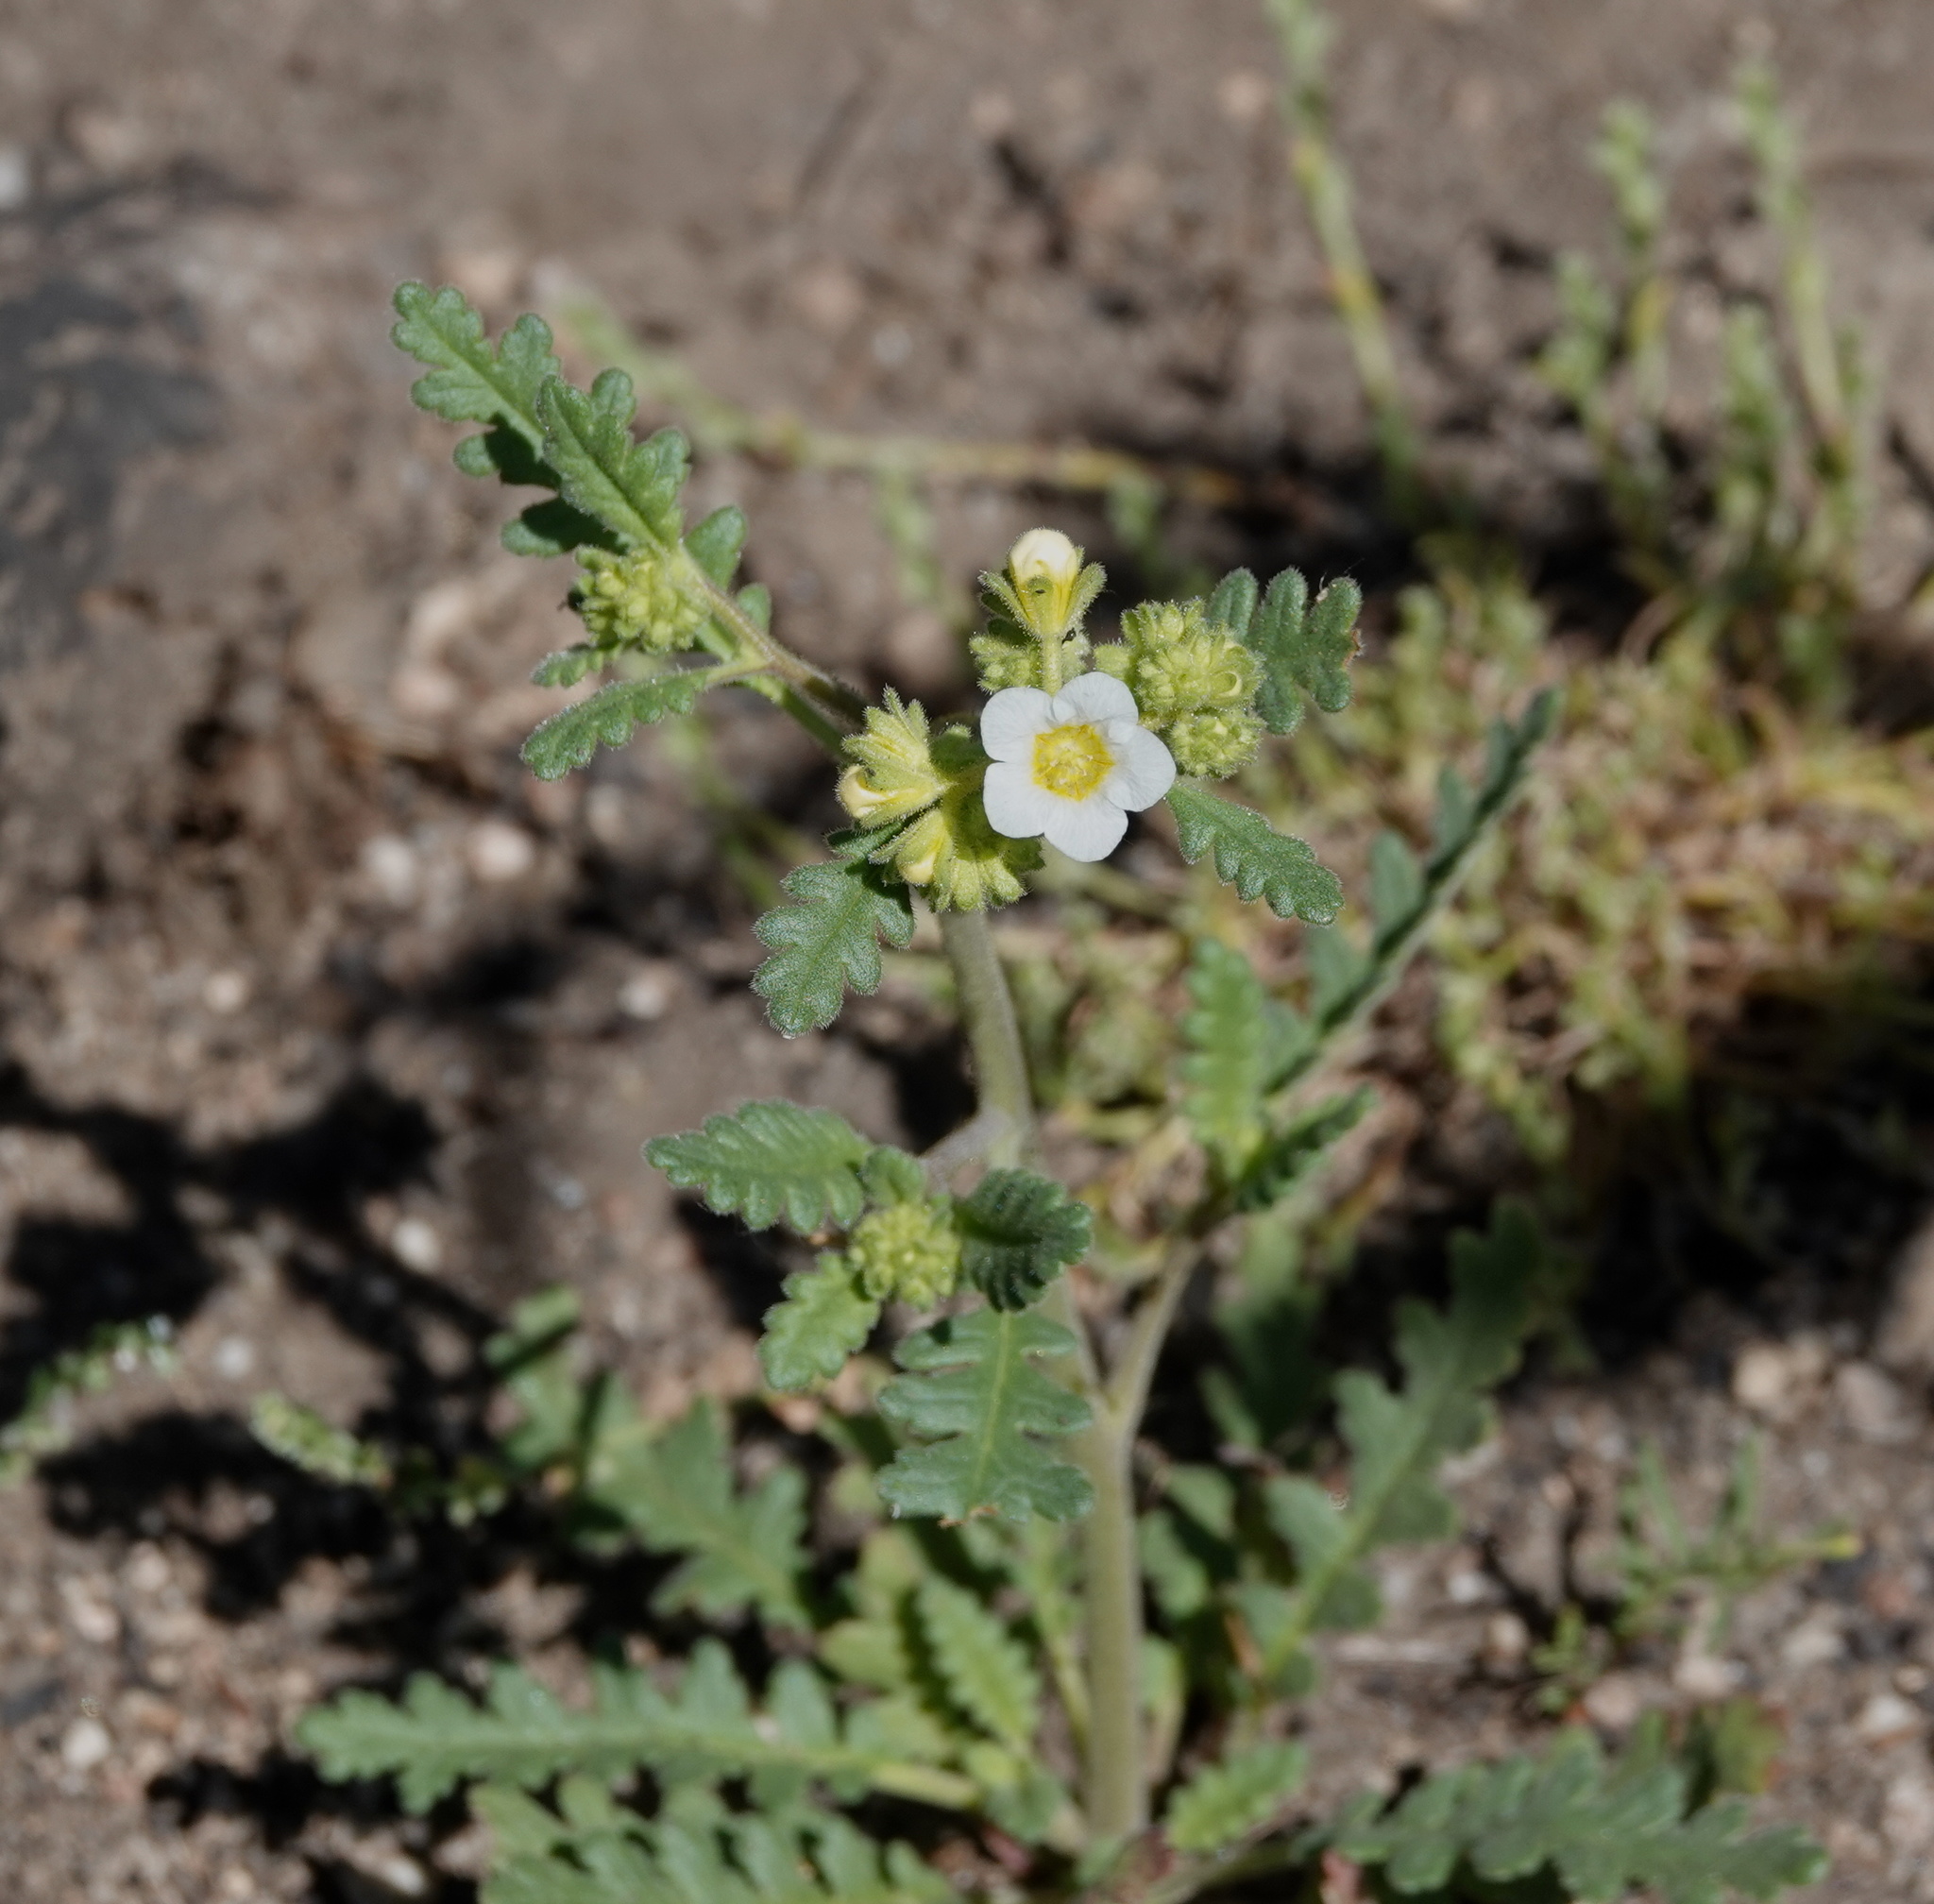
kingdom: Plantae
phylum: Tracheophyta
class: Magnoliopsida
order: Boraginales
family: Hydrophyllaceae
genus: Phacelia
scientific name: Phacelia brachyloba
